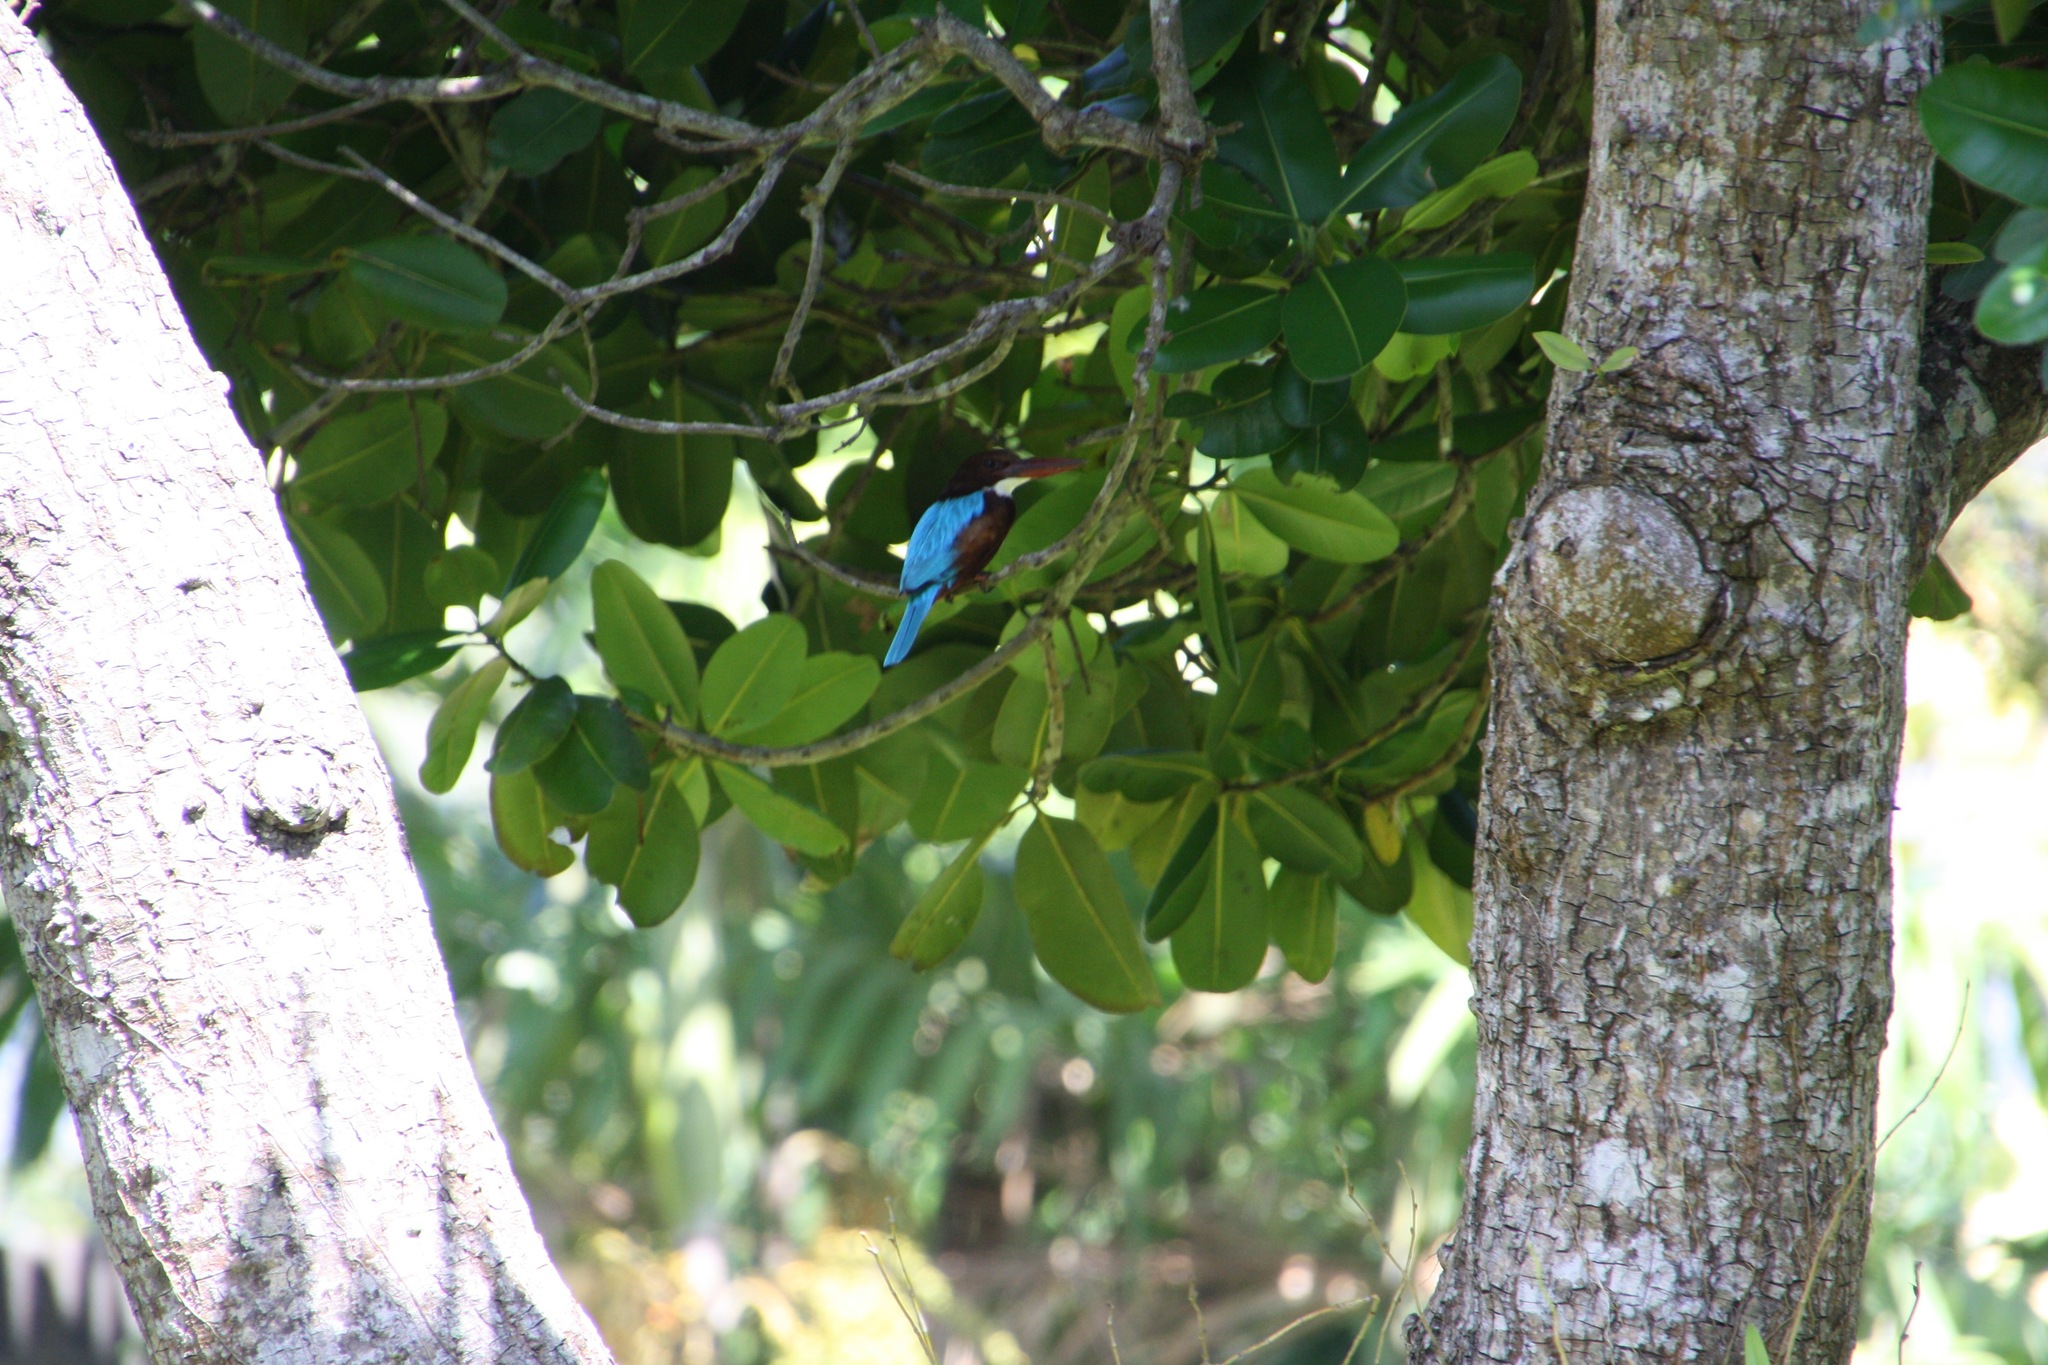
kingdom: Animalia
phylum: Chordata
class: Aves
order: Coraciiformes
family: Alcedinidae
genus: Halcyon
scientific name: Halcyon smyrnensis
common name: White-throated kingfisher
